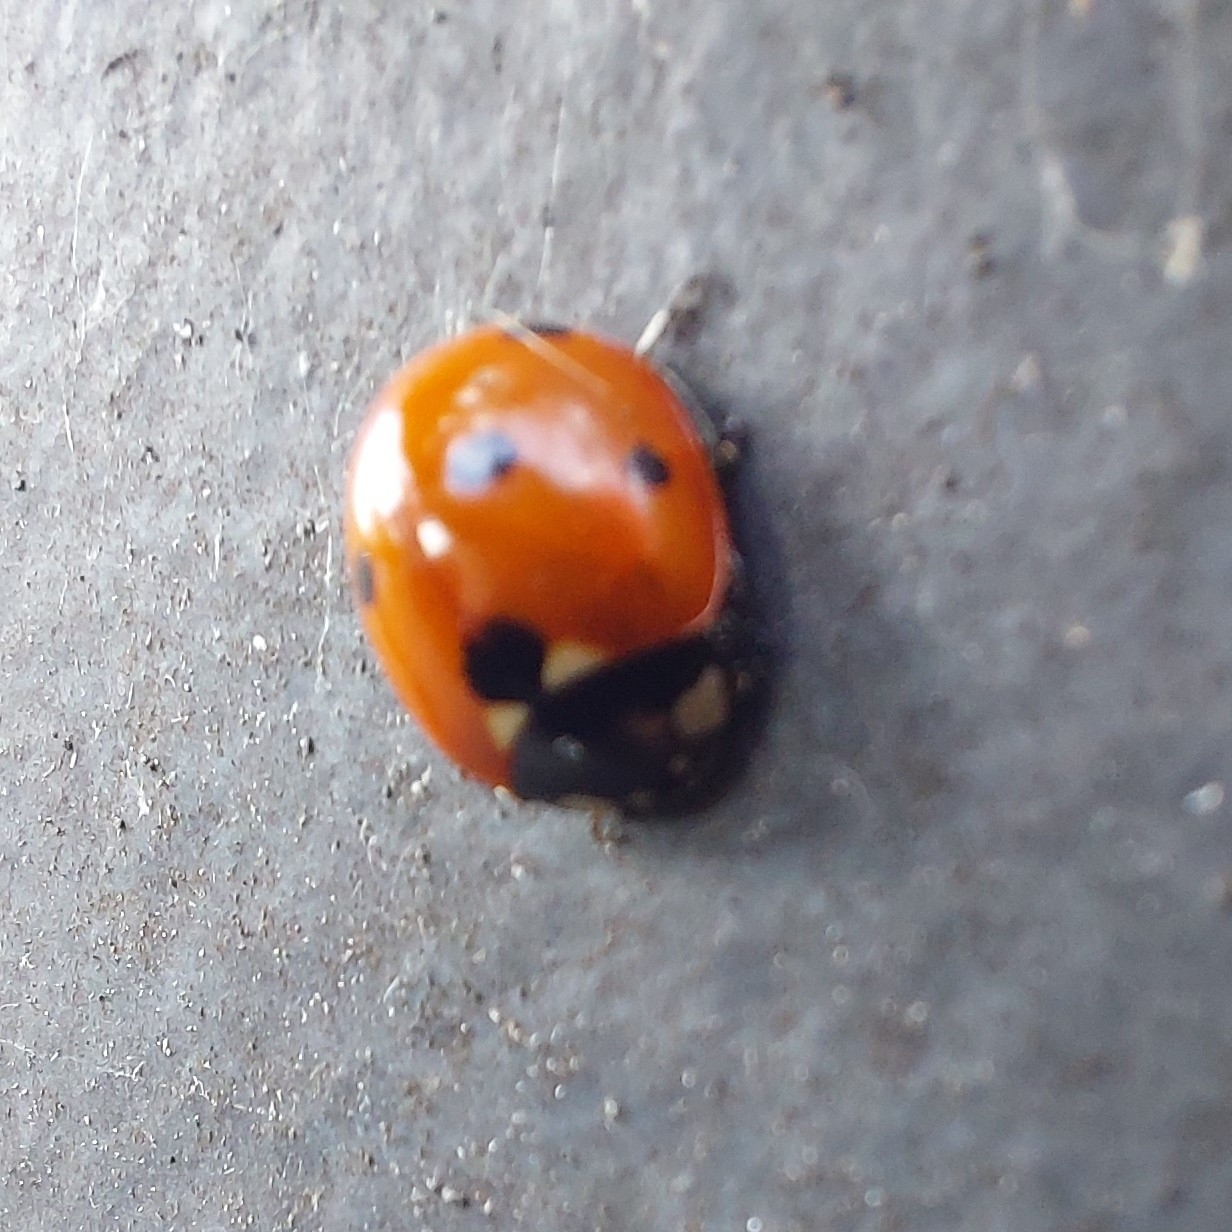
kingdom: Animalia
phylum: Arthropoda
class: Insecta
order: Coleoptera
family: Coccinellidae
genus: Coccinella
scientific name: Coccinella septempunctata
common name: Sevenspotted lady beetle
